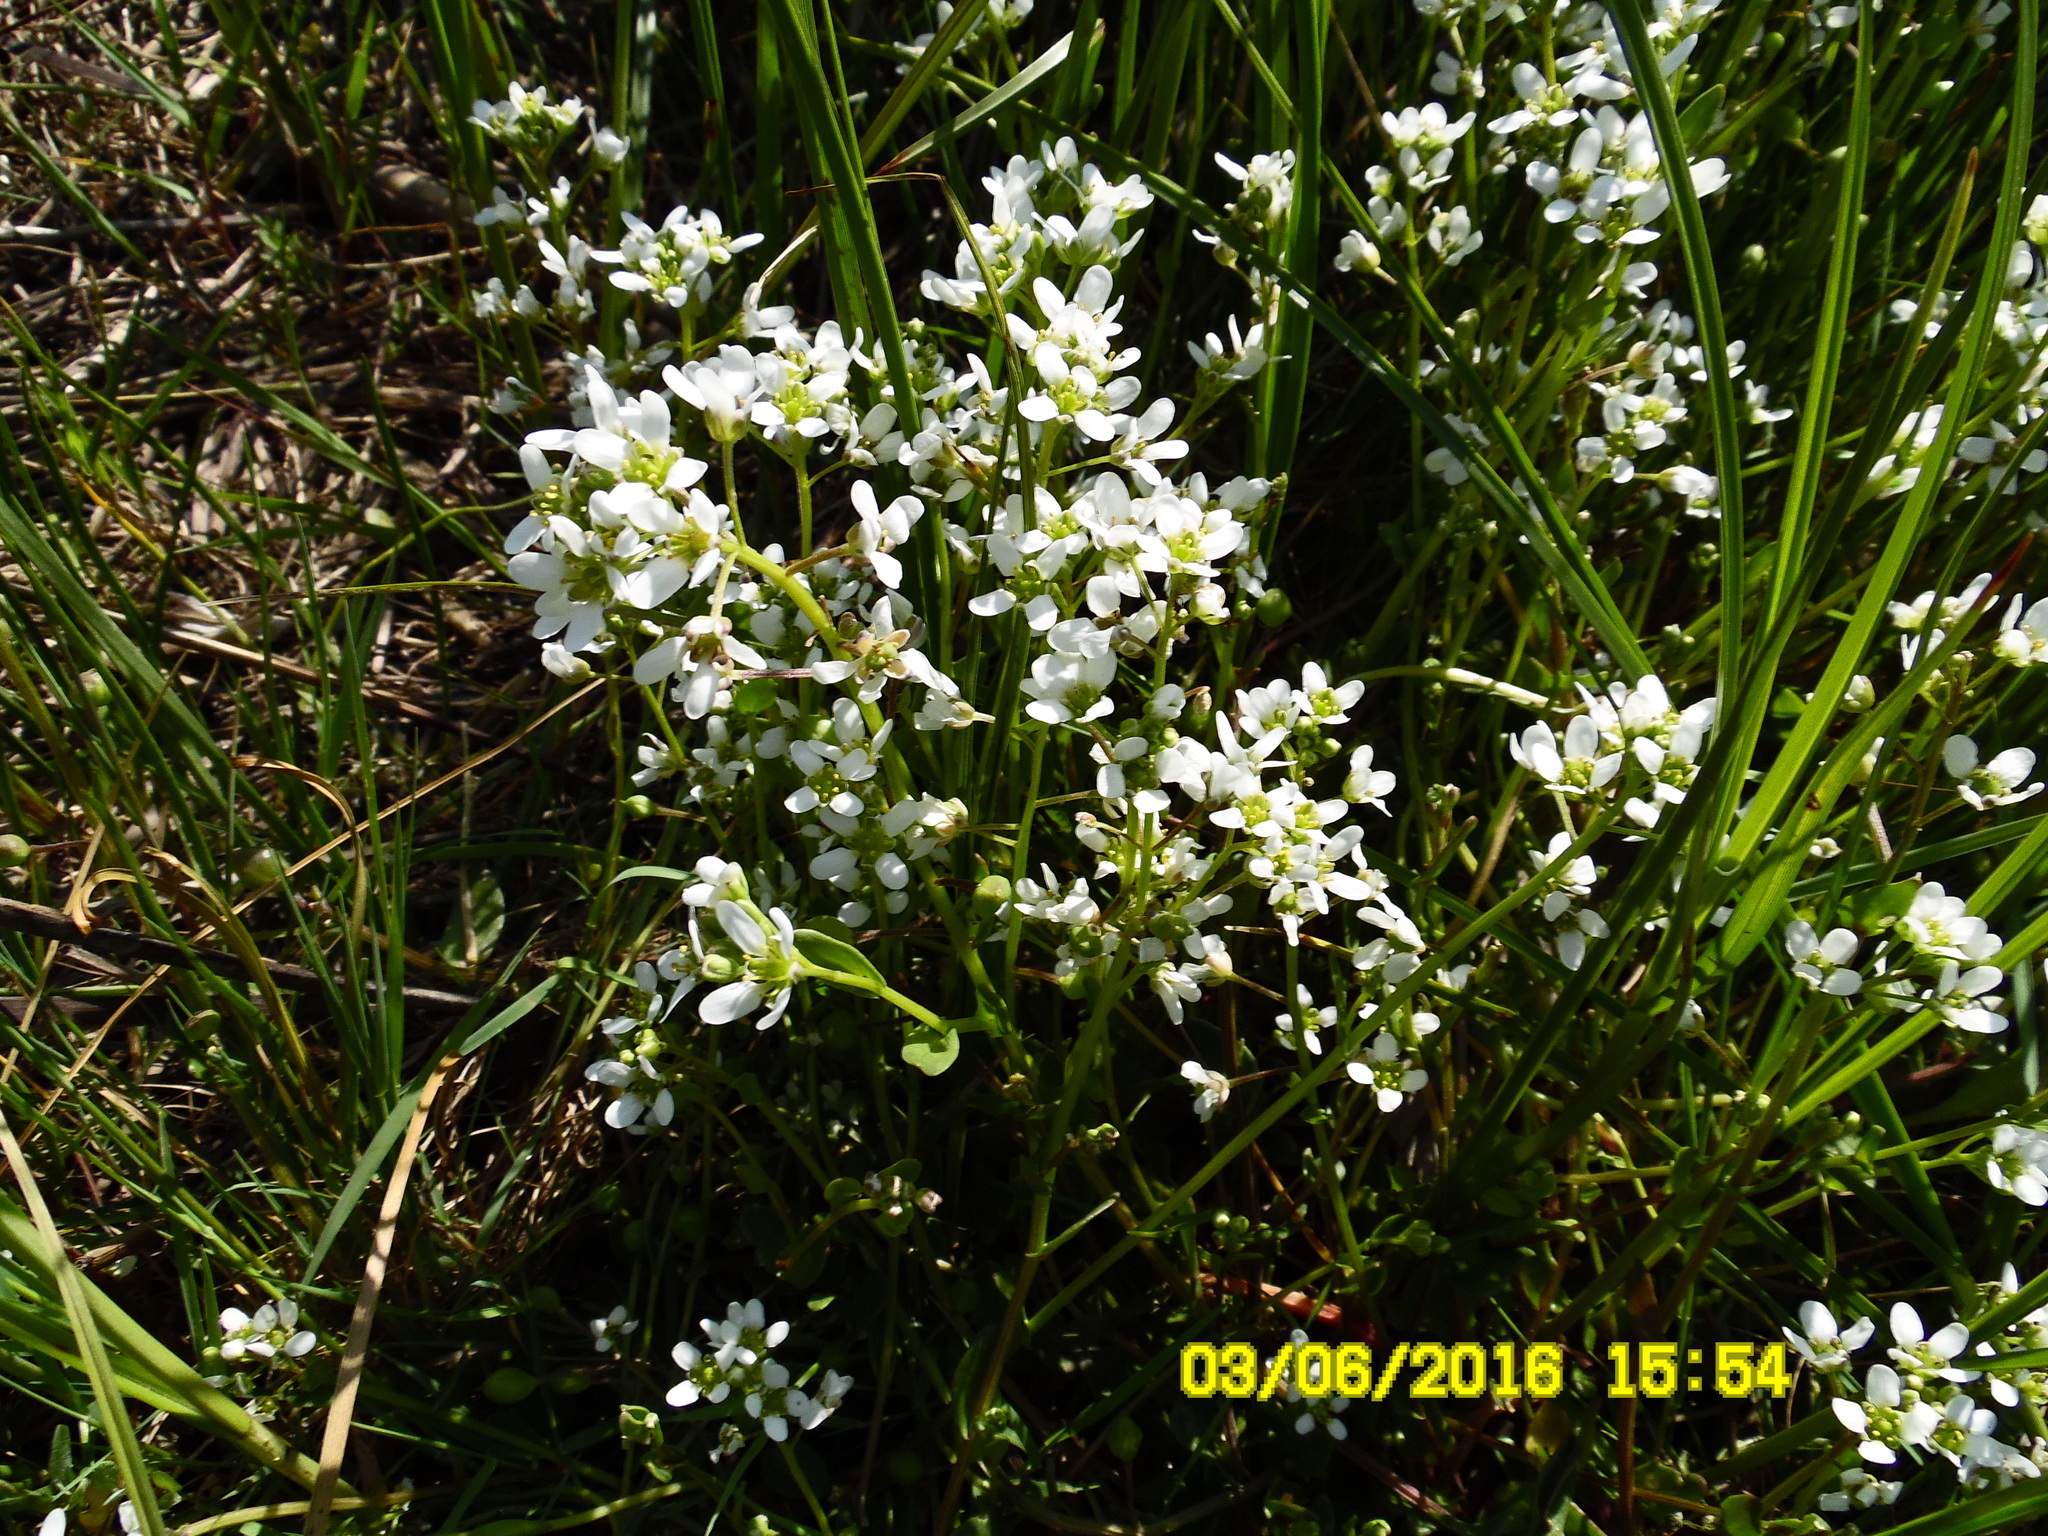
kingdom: Plantae
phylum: Tracheophyta
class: Magnoliopsida
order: Brassicales
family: Brassicaceae
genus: Cochlearia
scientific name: Cochlearia hollandica
